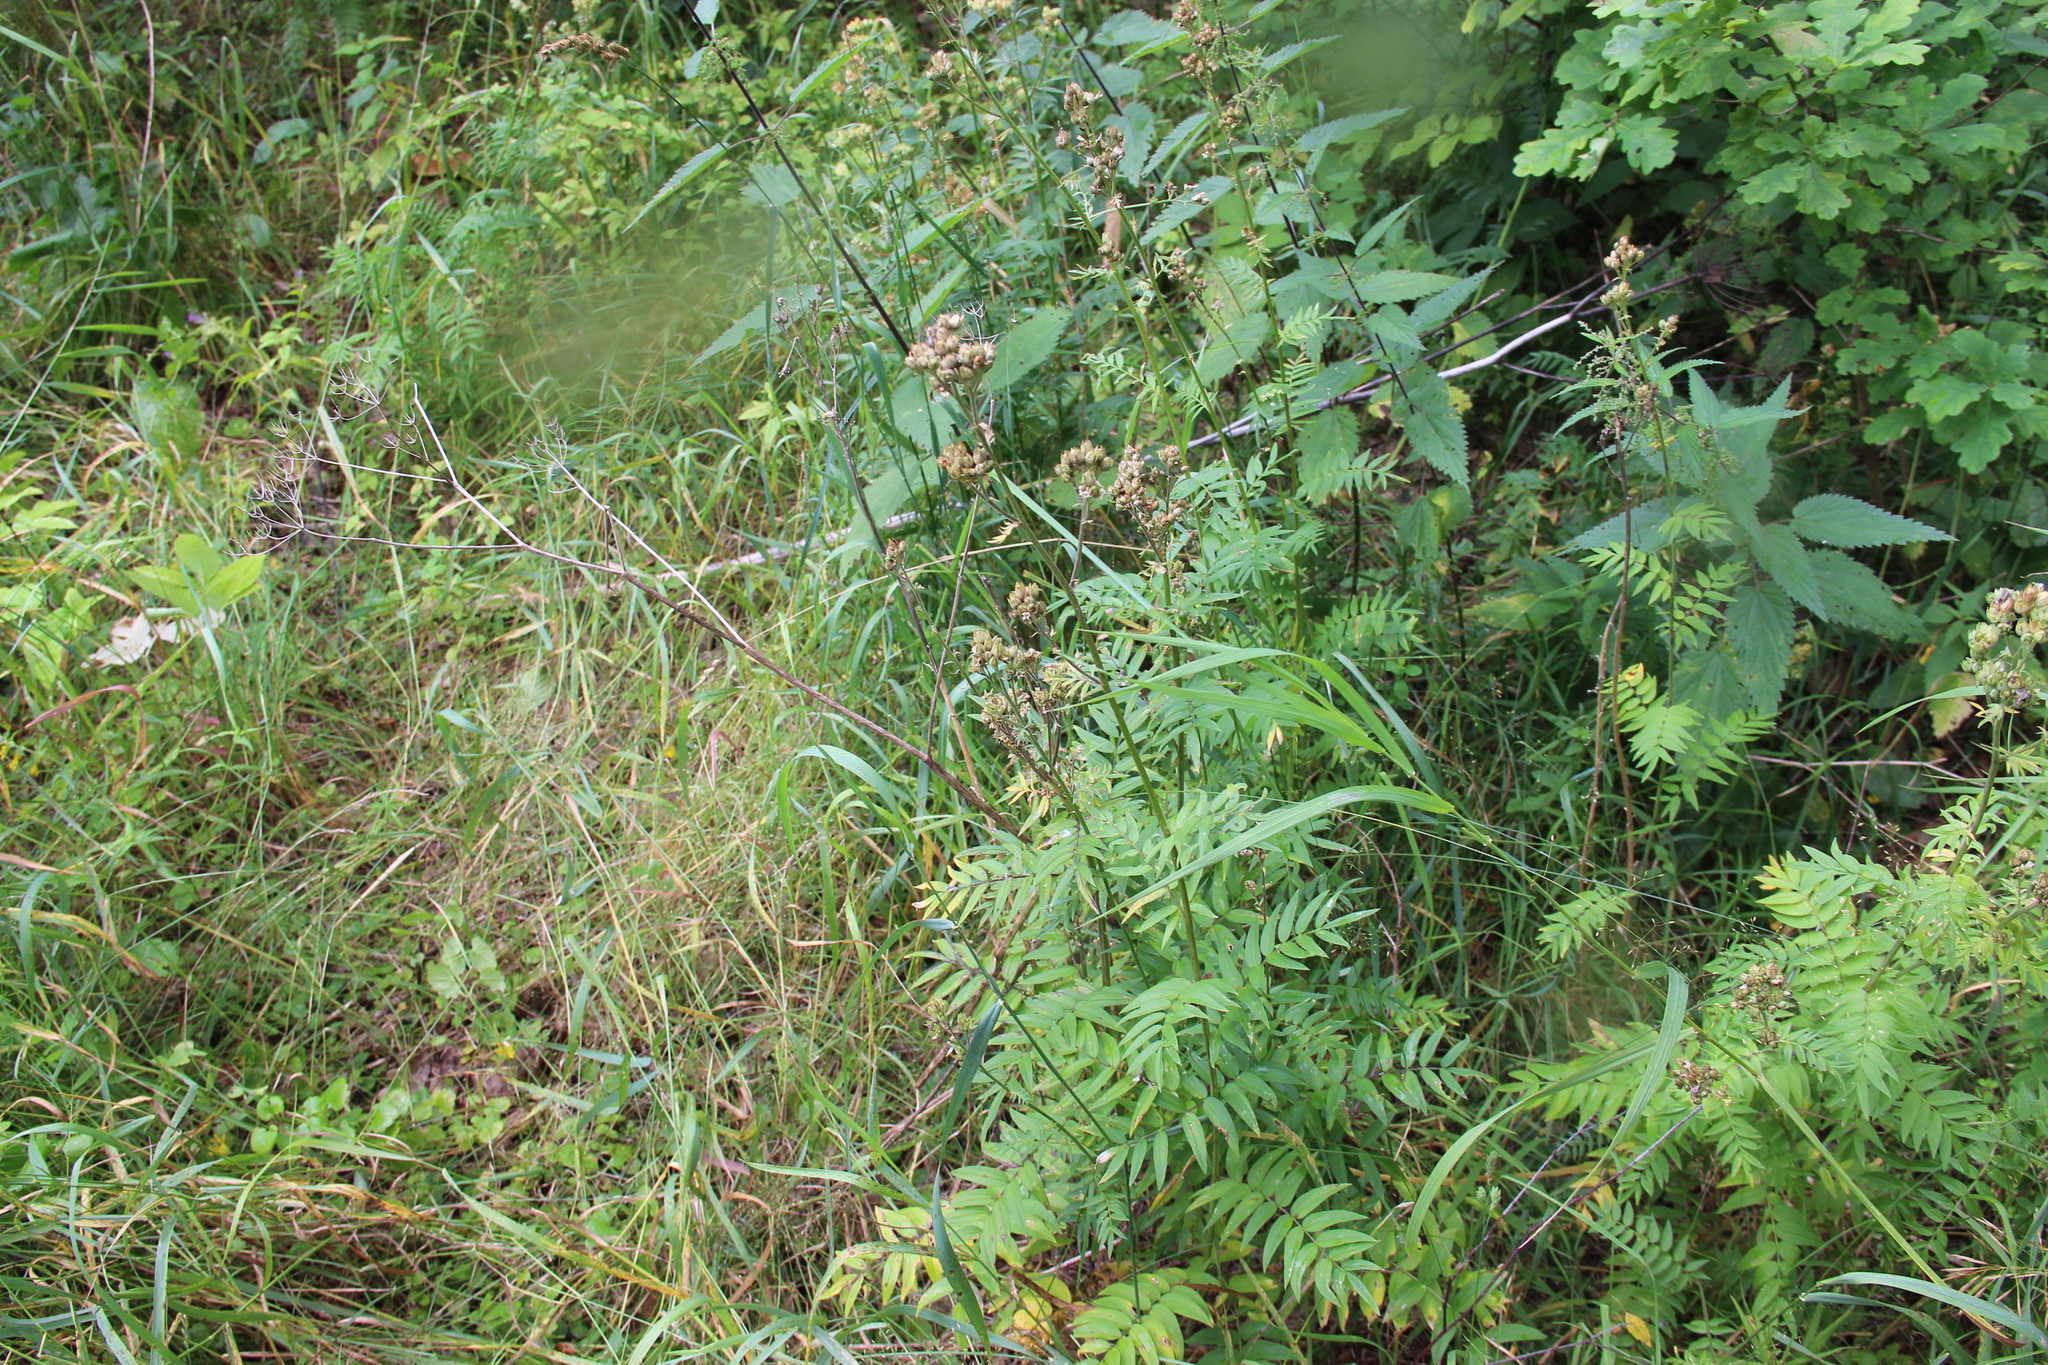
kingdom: Plantae
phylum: Tracheophyta
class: Magnoliopsida
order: Ericales
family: Polemoniaceae
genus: Polemonium
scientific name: Polemonium caeruleum
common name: Jacob's-ladder
